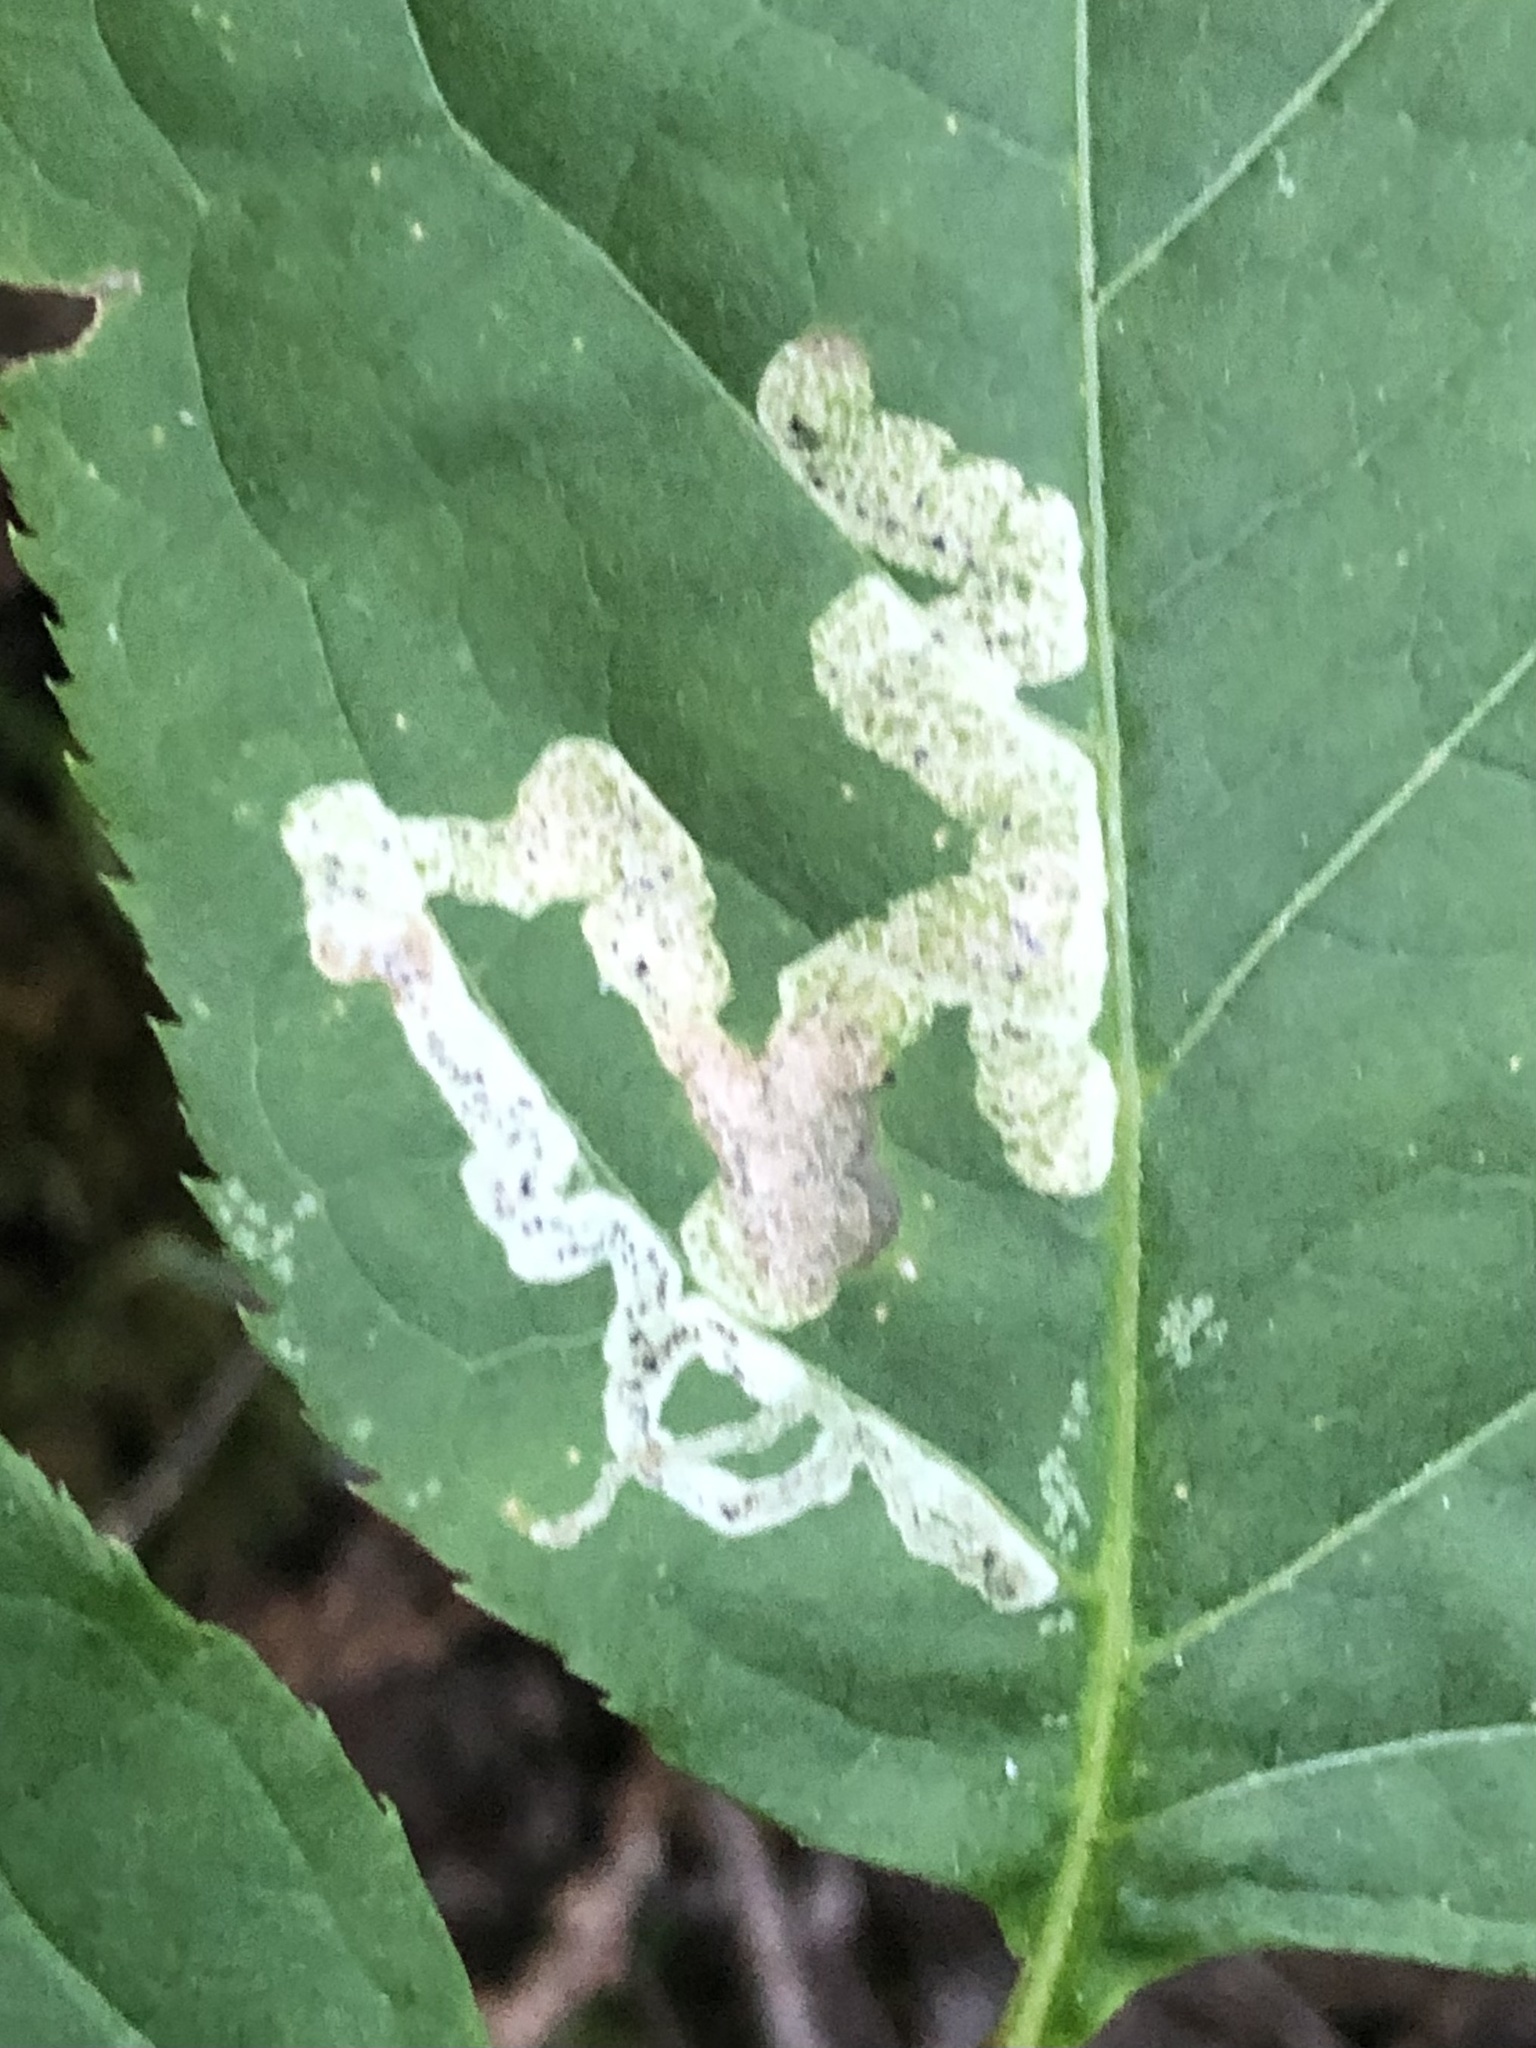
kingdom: Animalia
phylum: Arthropoda
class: Insecta
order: Diptera
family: Agromyzidae
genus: Phytomyza
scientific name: Phytomyza aralivora
